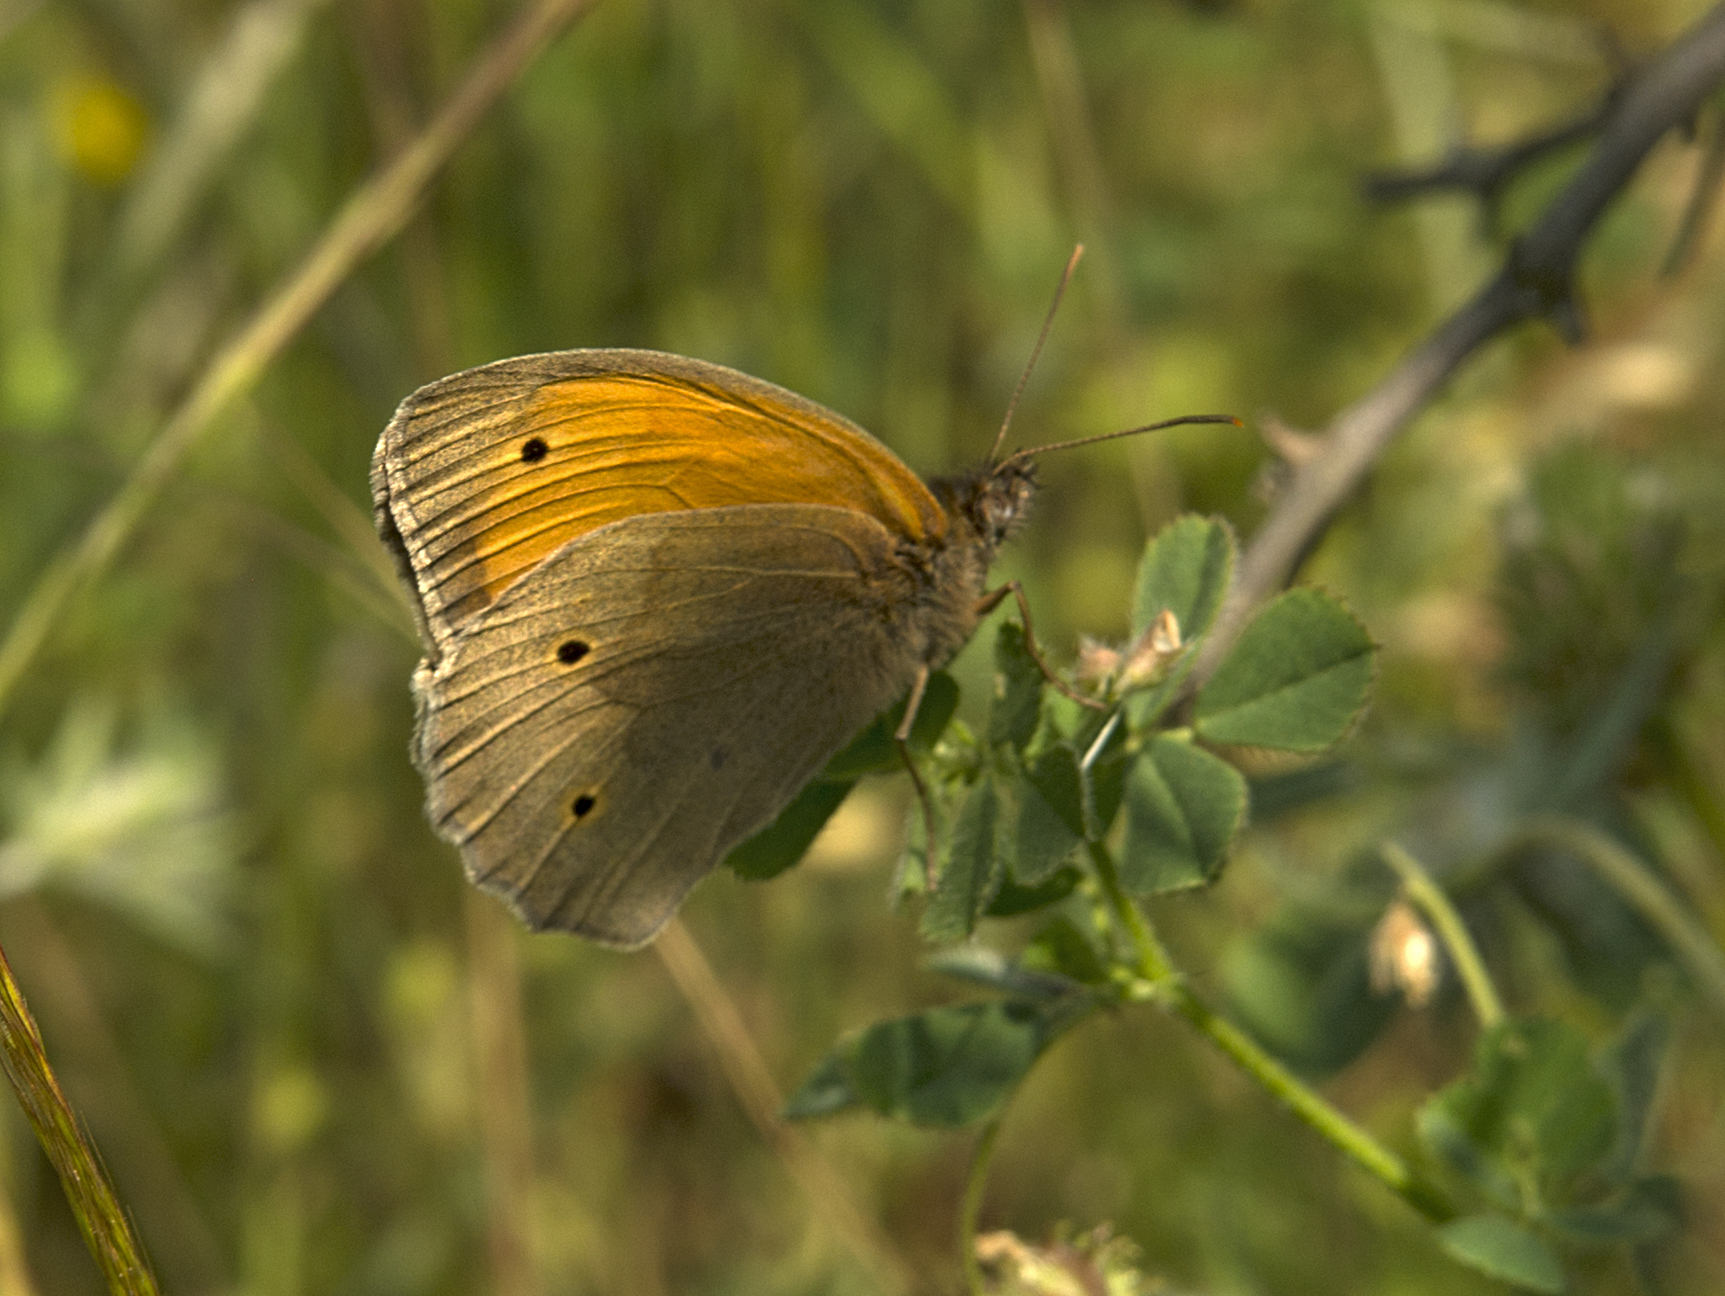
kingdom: Animalia
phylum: Arthropoda
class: Insecta
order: Lepidoptera
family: Nymphalidae
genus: Maniola
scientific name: Maniola jurtina
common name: Meadow brown
